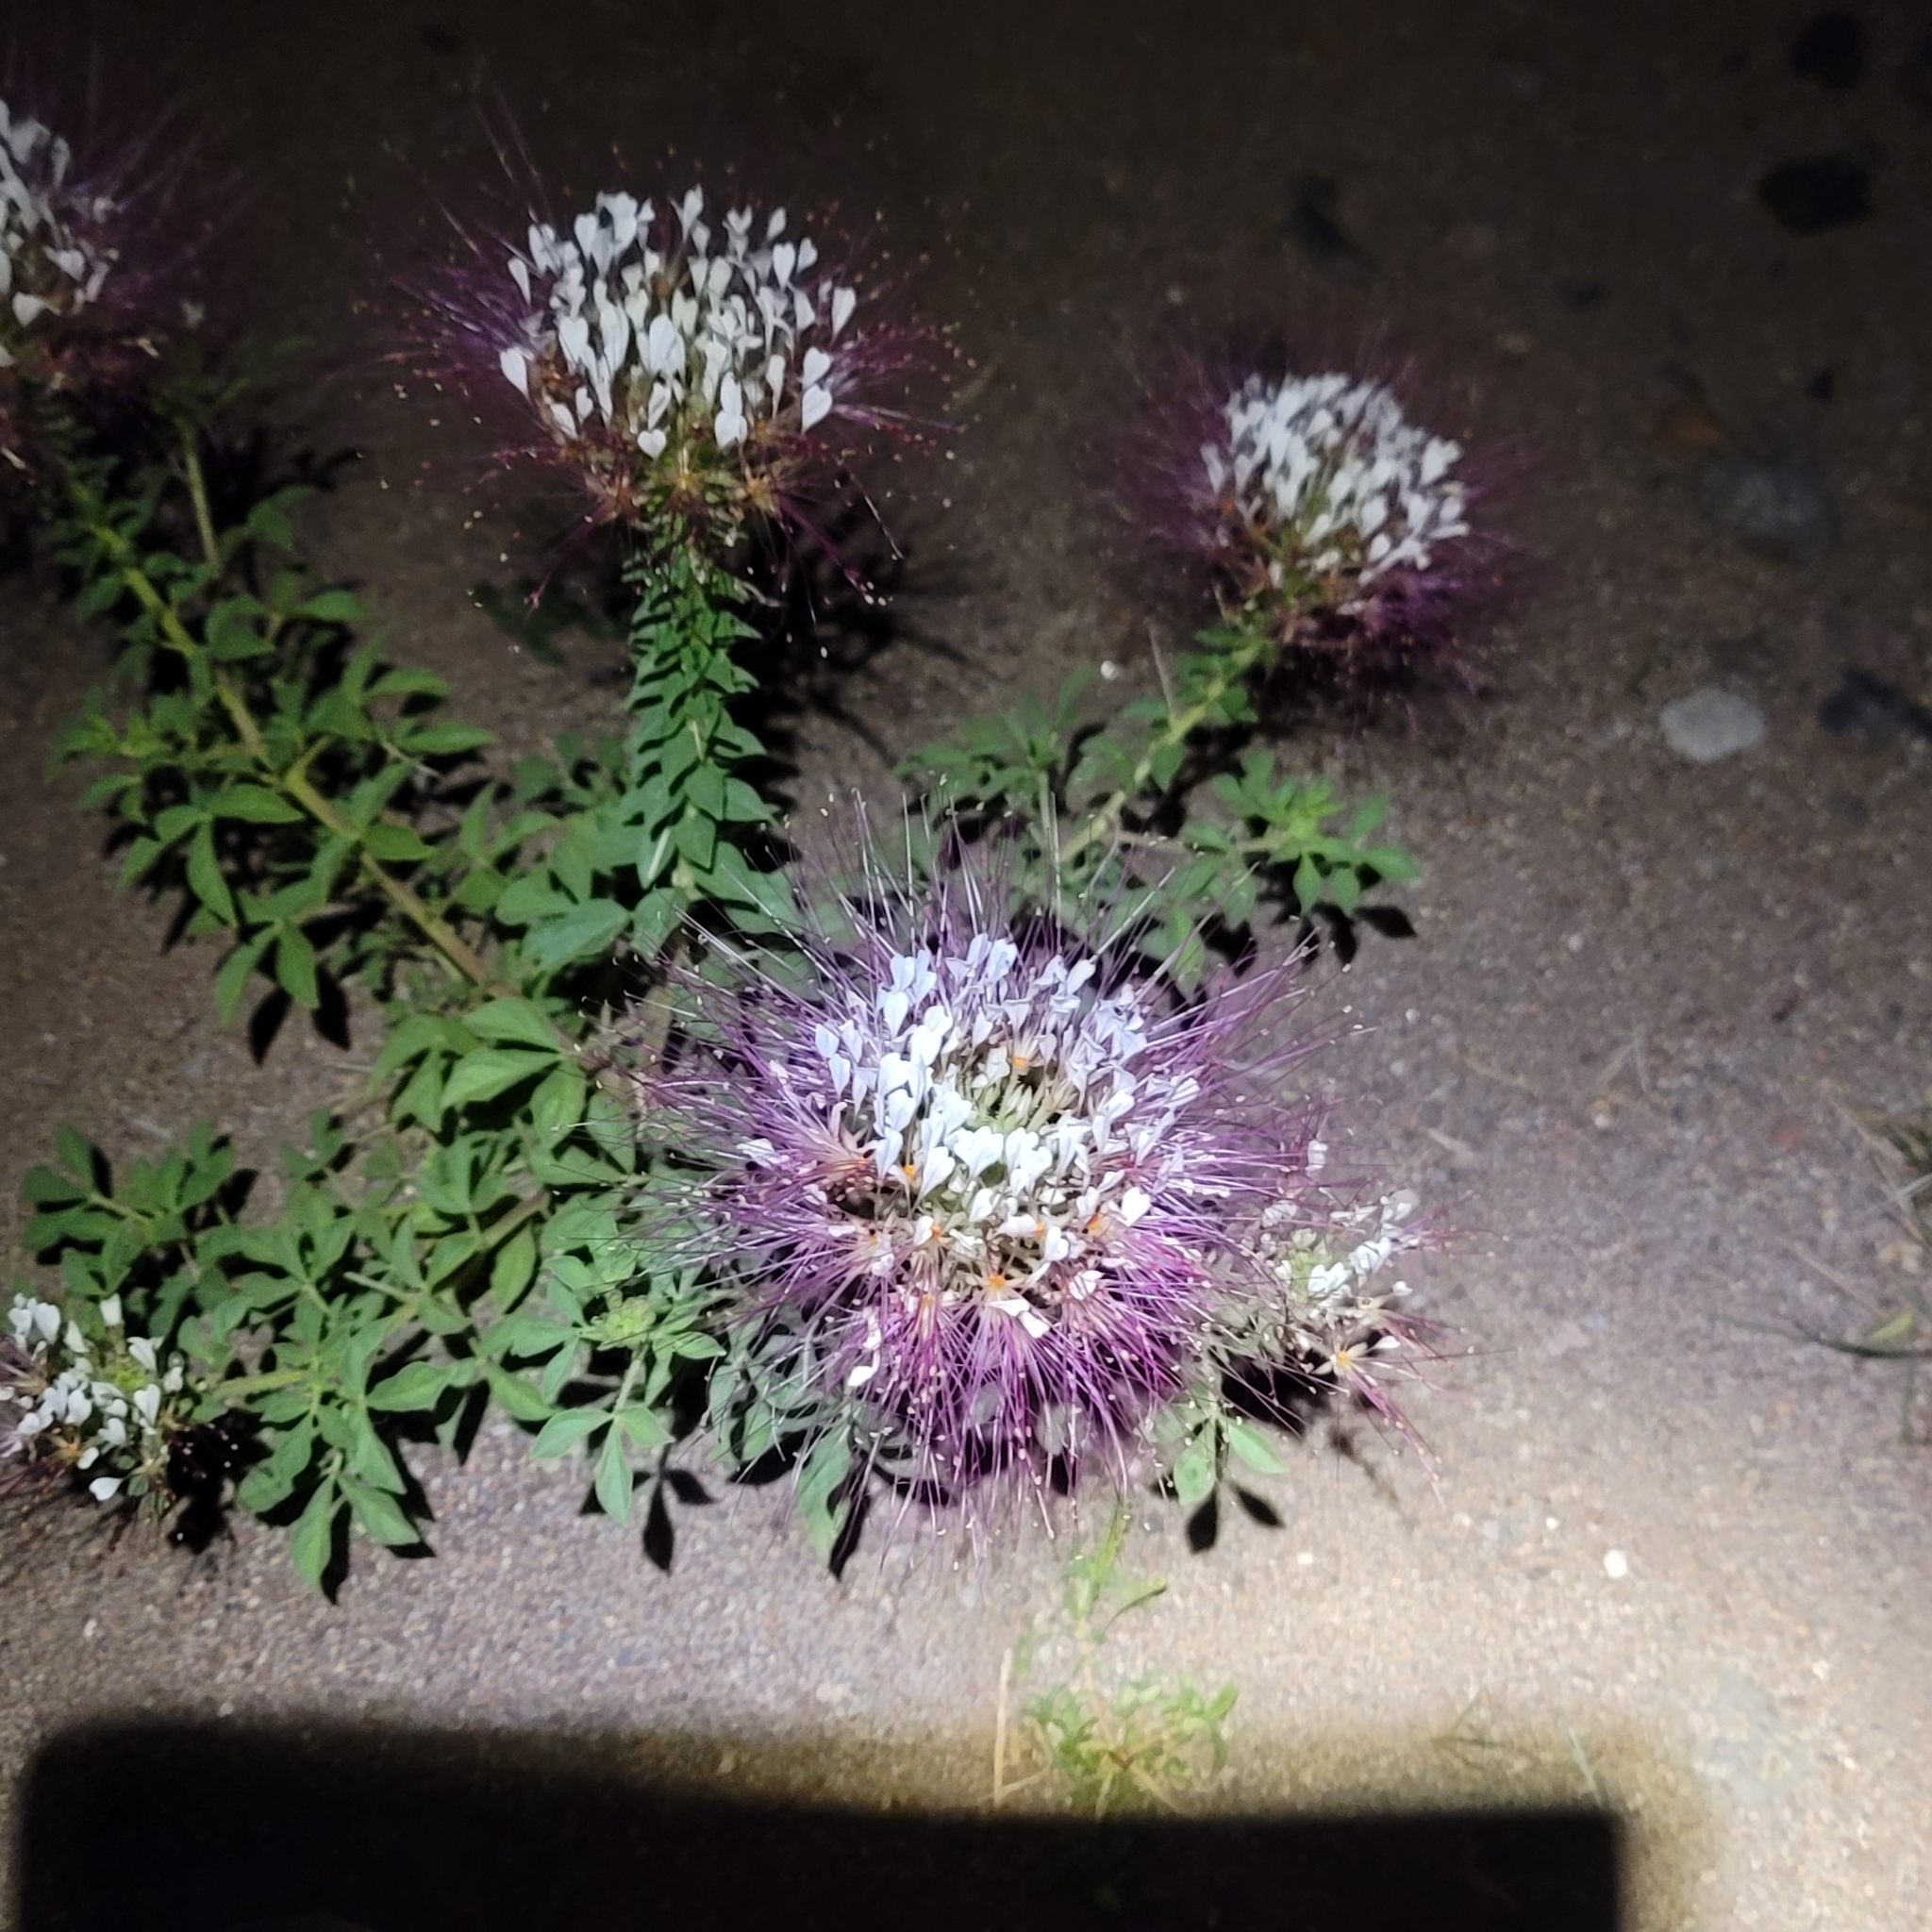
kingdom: Plantae
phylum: Tracheophyta
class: Magnoliopsida
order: Brassicales
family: Cleomaceae
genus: Polanisia
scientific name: Polanisia dodecandra
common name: Clammyweed
